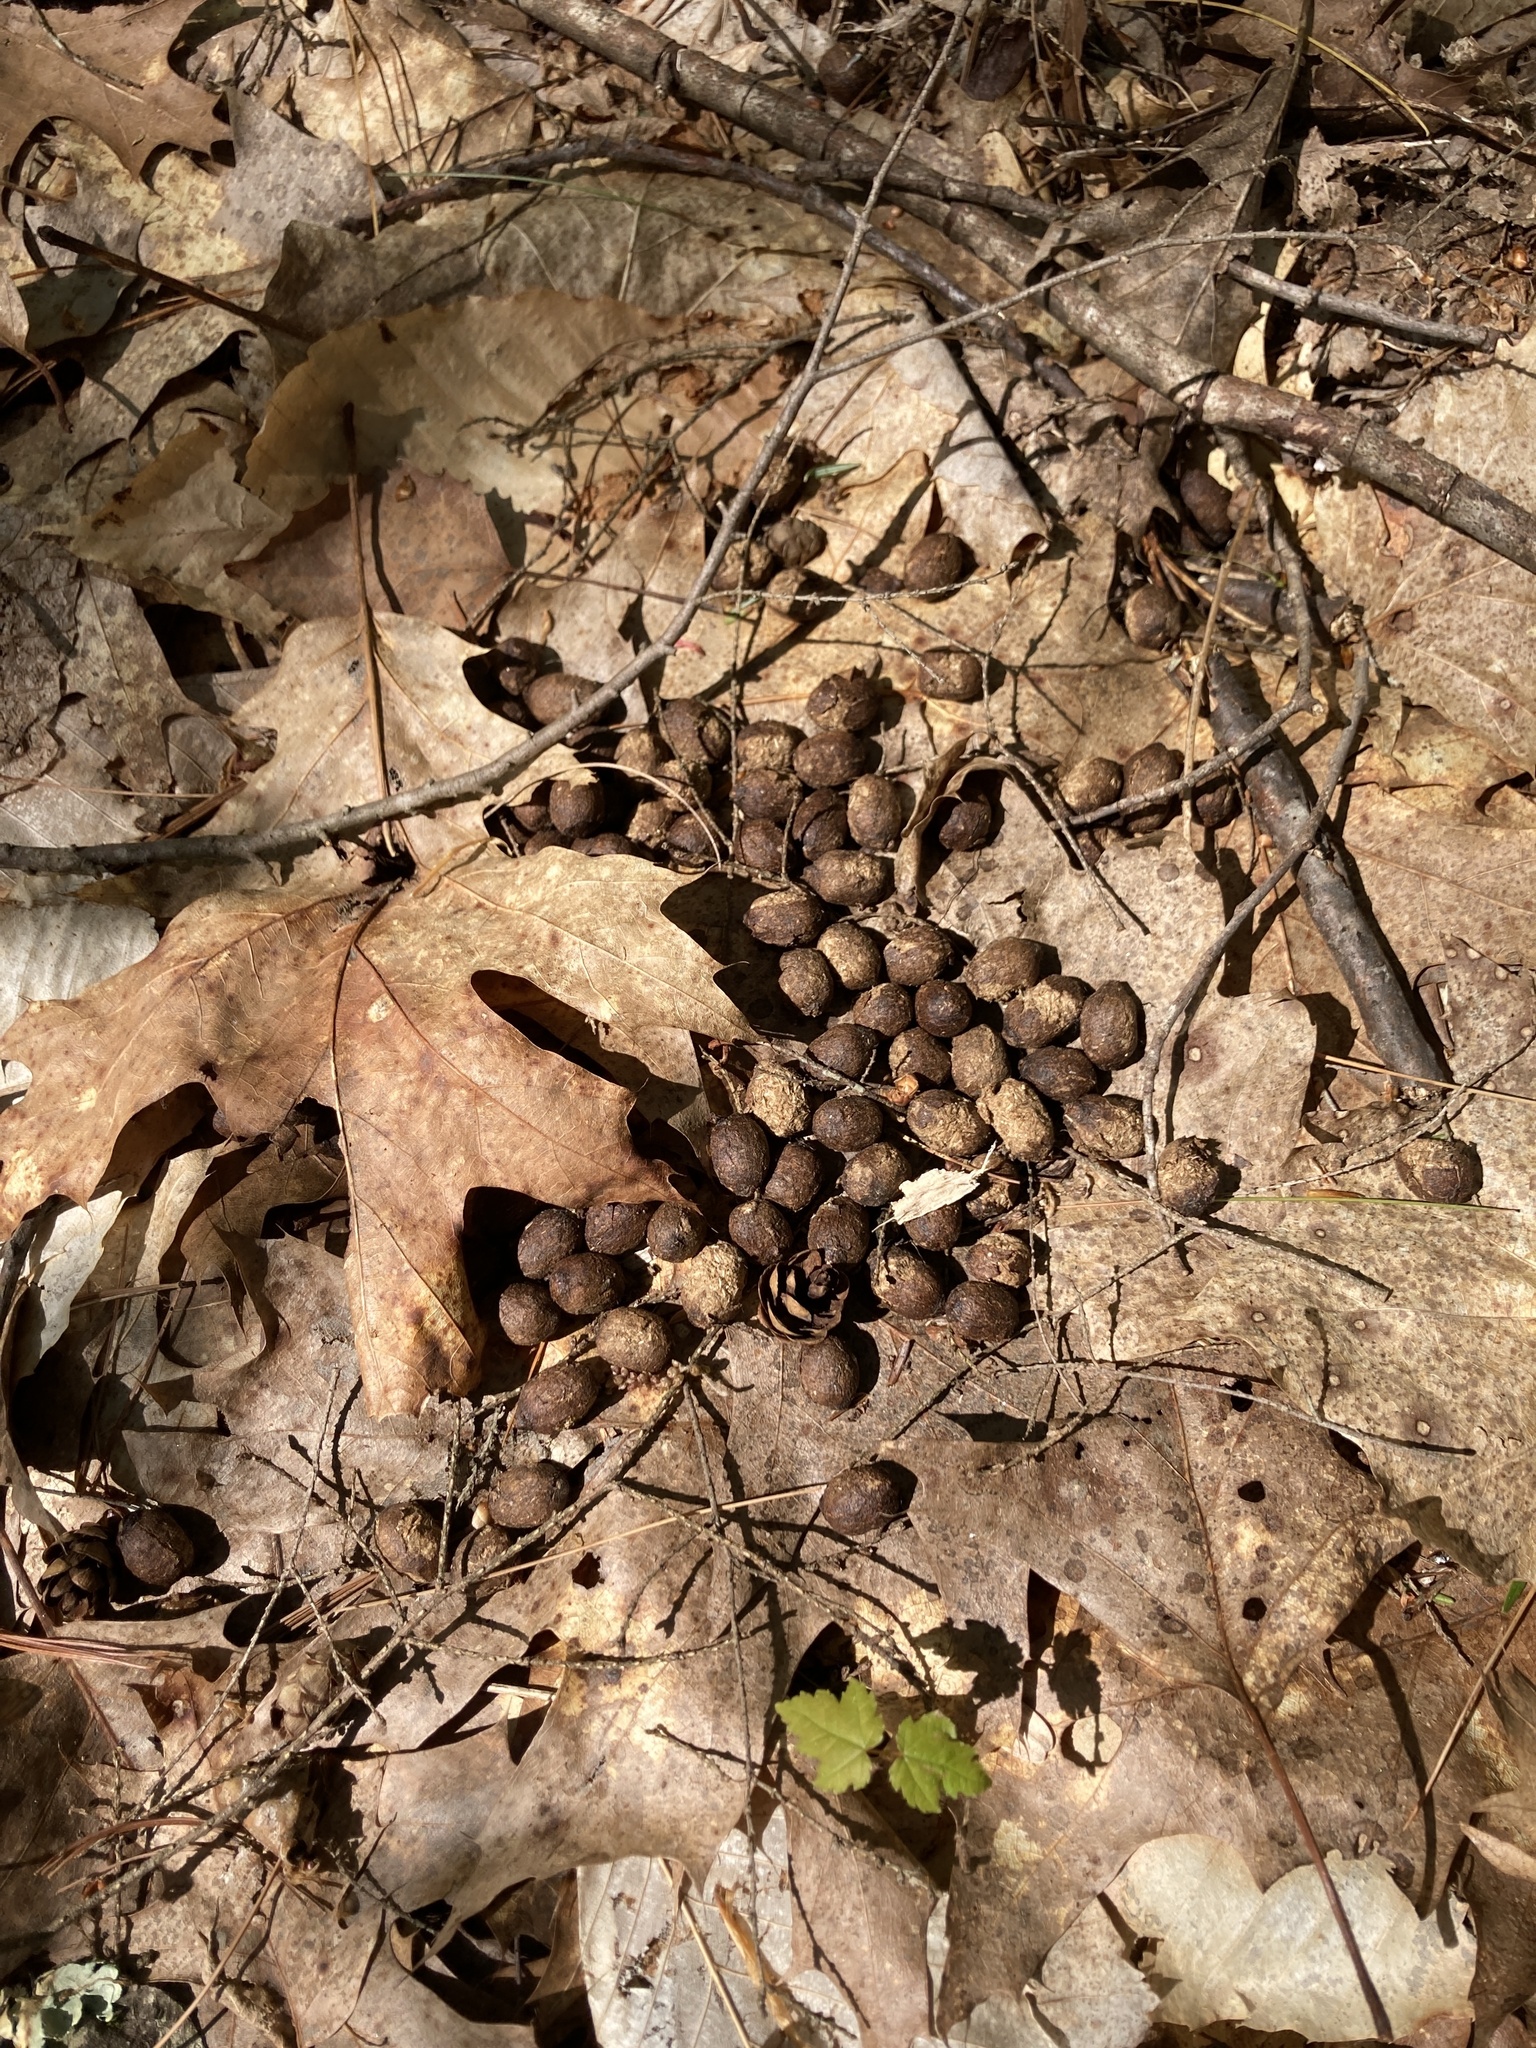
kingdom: Animalia
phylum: Chordata
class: Mammalia
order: Artiodactyla
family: Cervidae
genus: Odocoileus
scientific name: Odocoileus virginianus
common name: White-tailed deer
